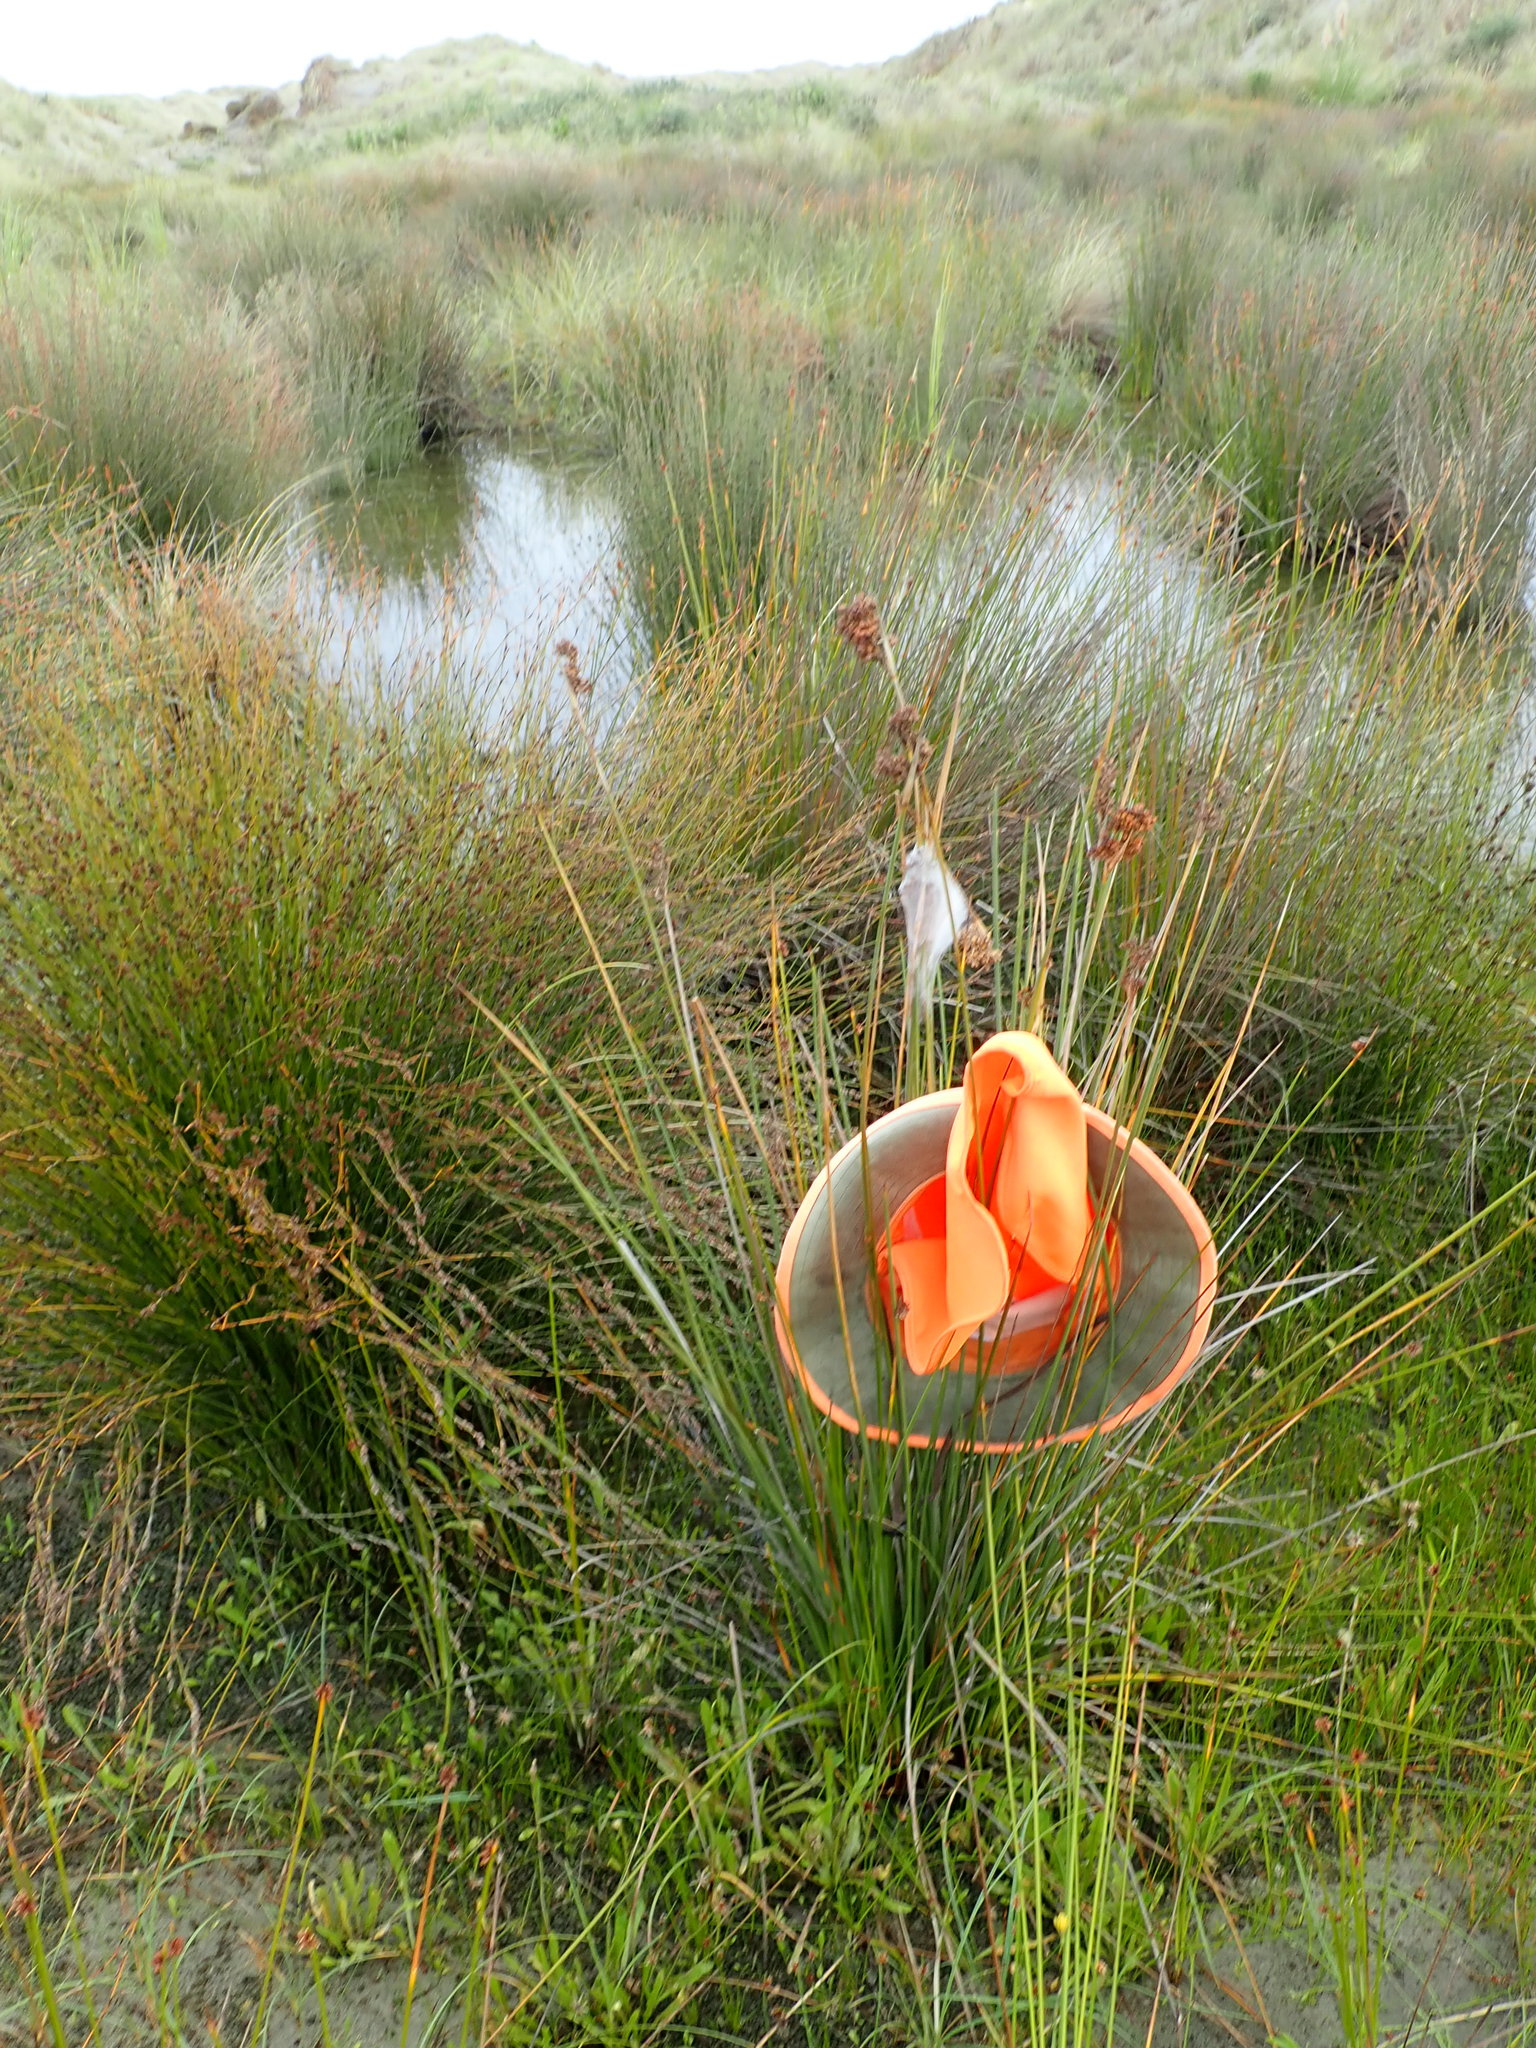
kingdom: Plantae
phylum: Tracheophyta
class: Liliopsida
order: Poales
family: Juncaceae
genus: Juncus
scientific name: Juncus acutus
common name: Sharp rush
